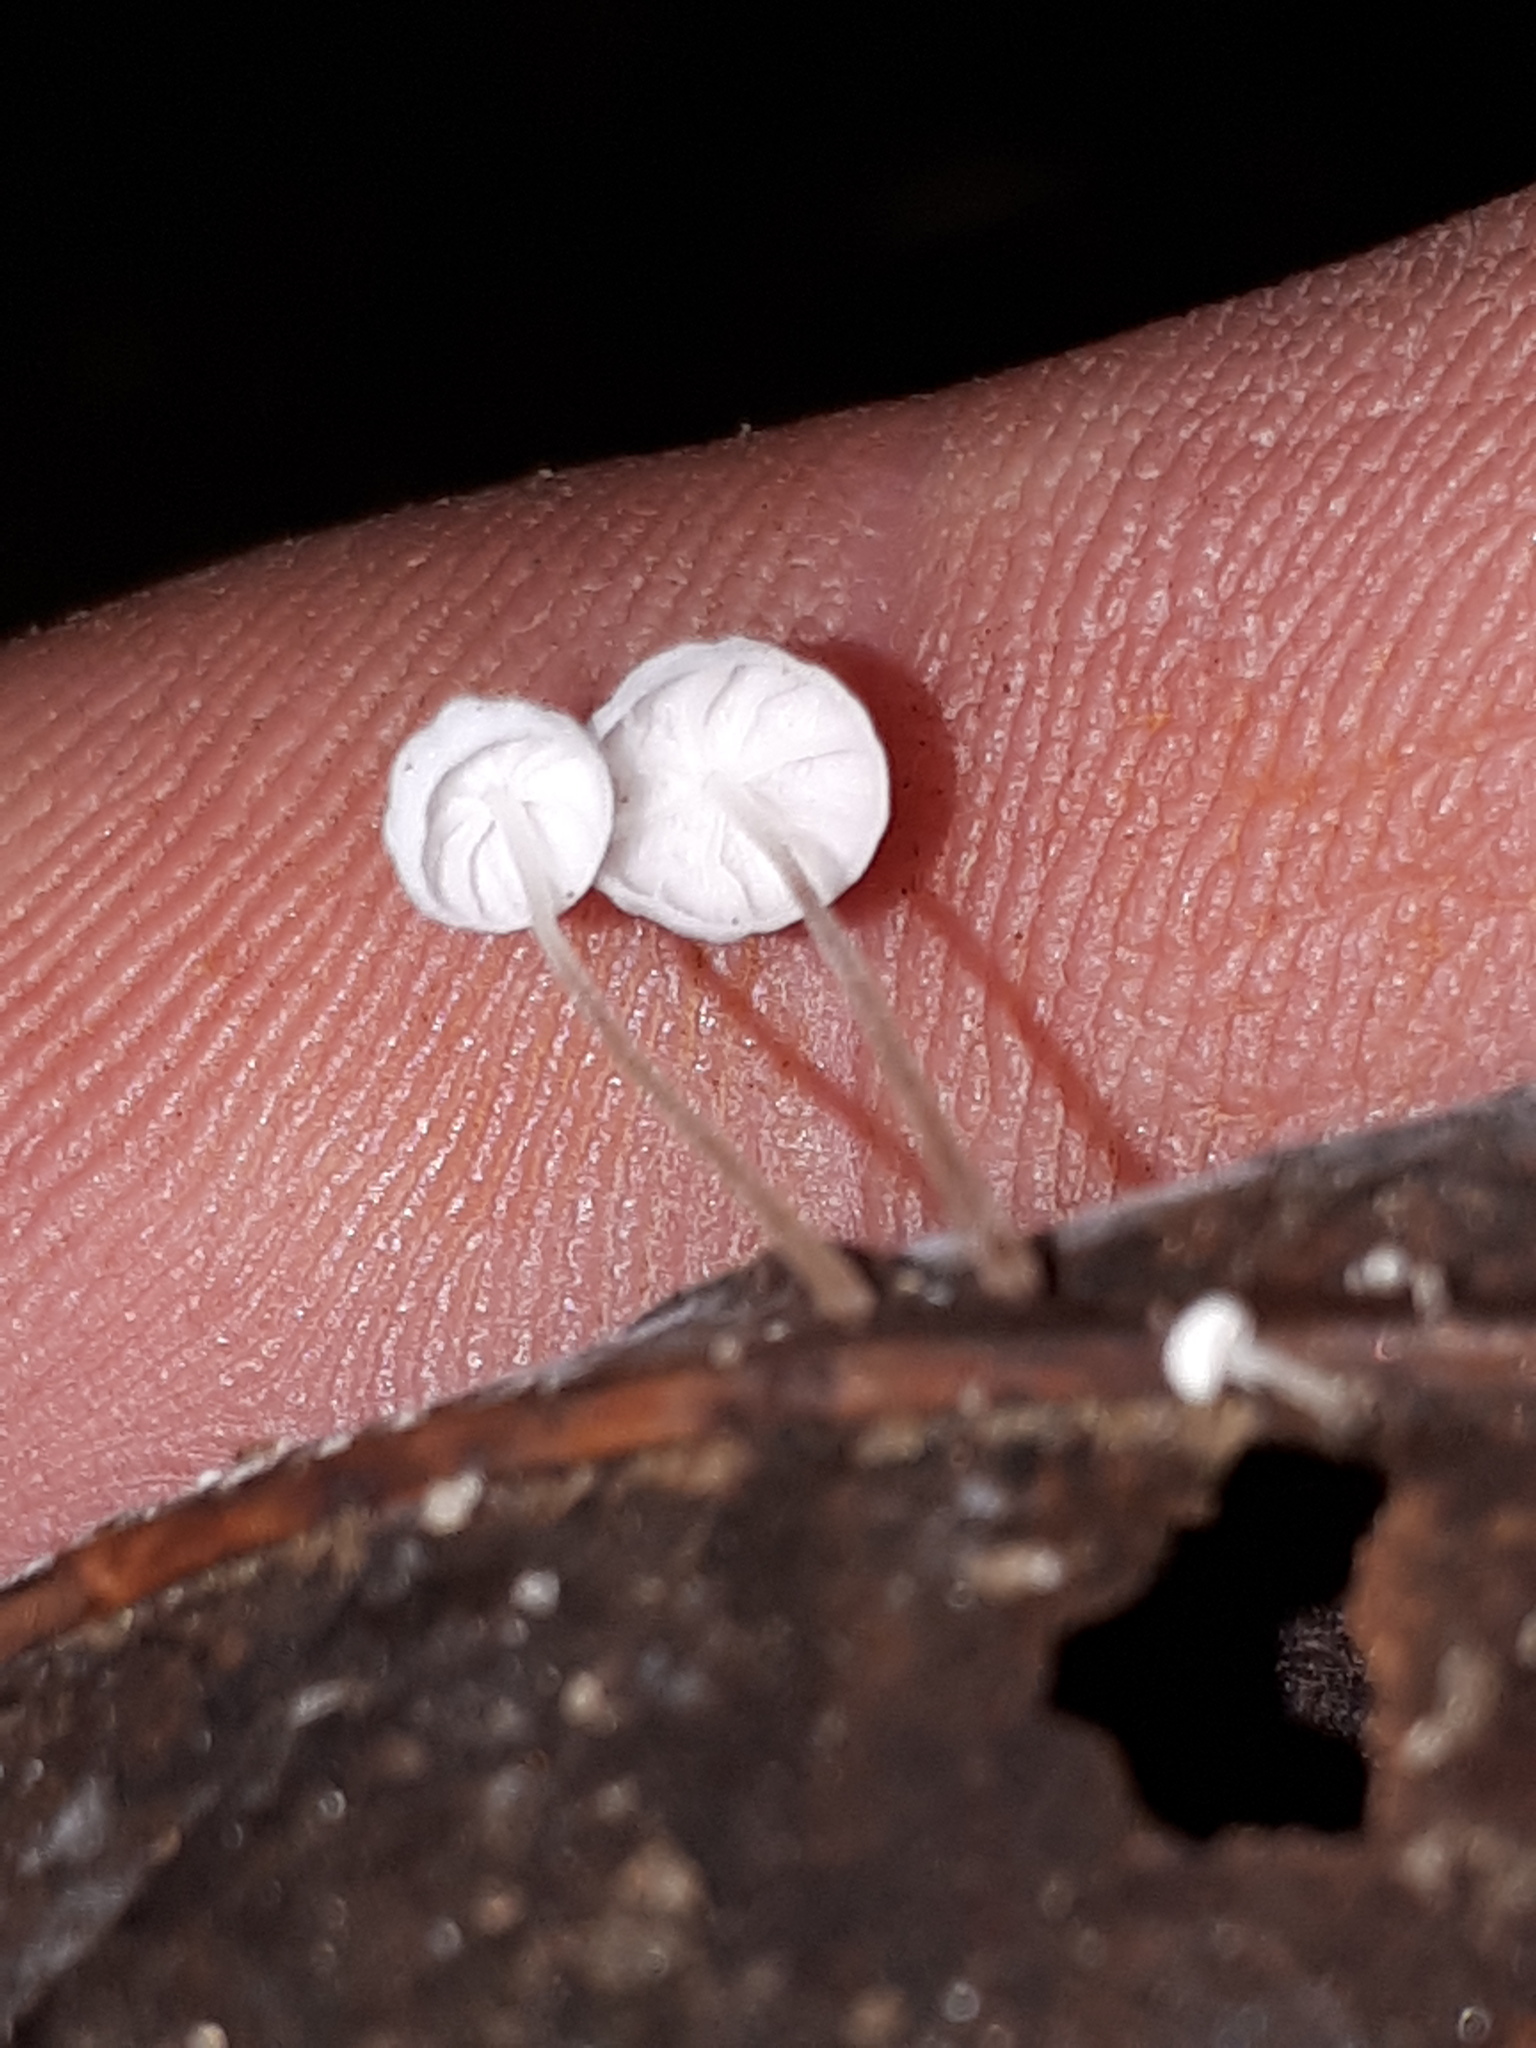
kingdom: Fungi
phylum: Basidiomycota
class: Agaricomycetes
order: Agaricales
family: Physalacriaceae
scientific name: Physalacriaceae
